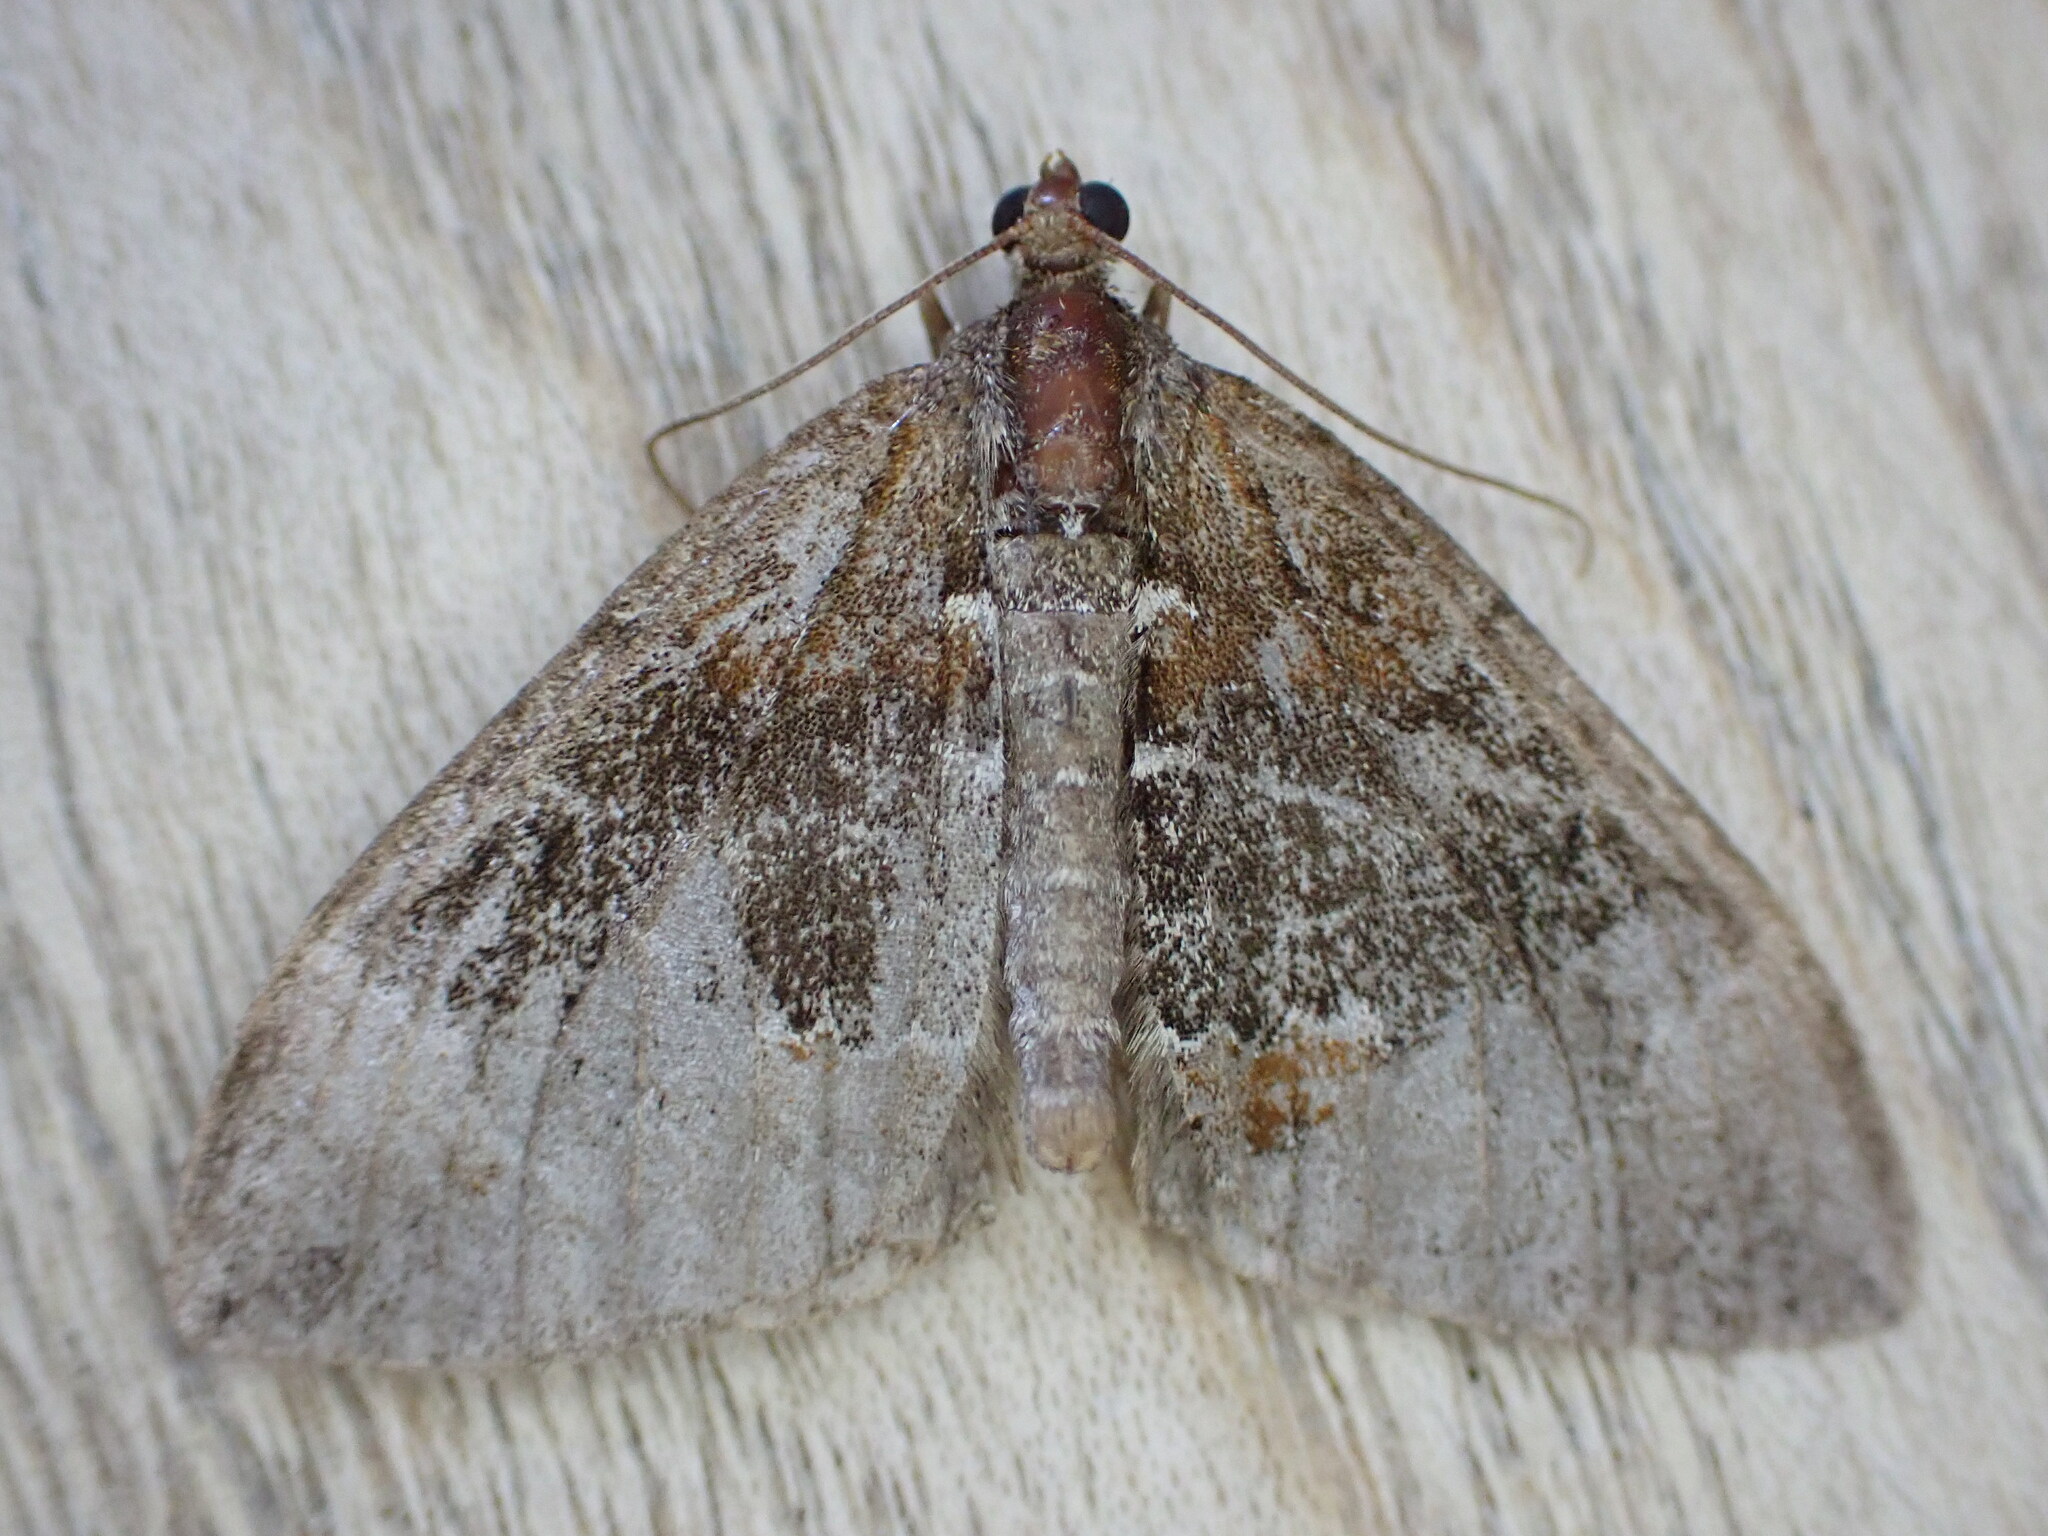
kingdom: Animalia
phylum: Arthropoda
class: Insecta
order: Lepidoptera
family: Geometridae
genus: Dysstroma
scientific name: Dysstroma truncata
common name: Common marbled carpet
